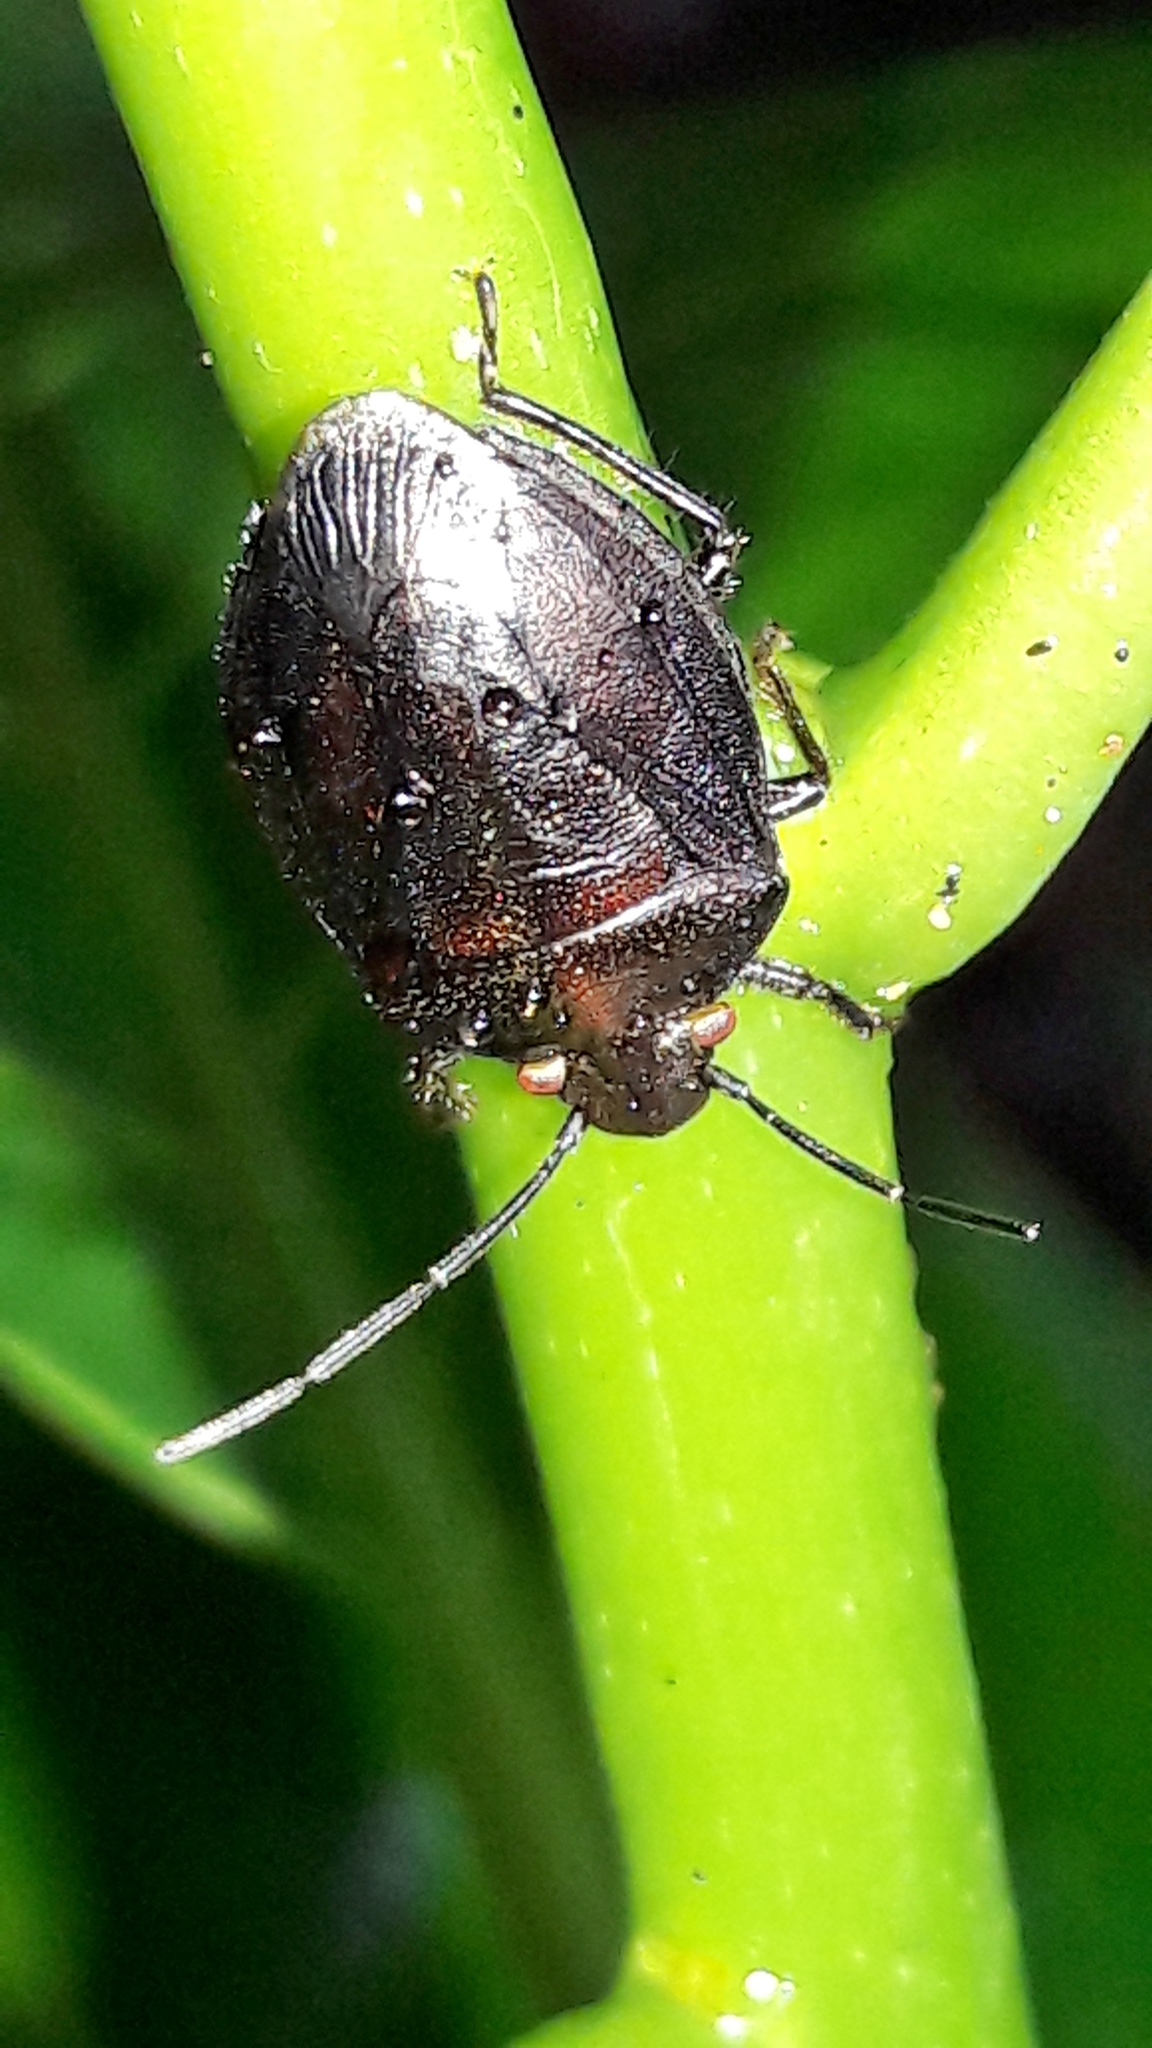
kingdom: Animalia
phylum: Arthropoda
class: Insecta
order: Hemiptera
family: Pentatomidae
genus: Antiteuchus
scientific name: Antiteuchus tripterus
